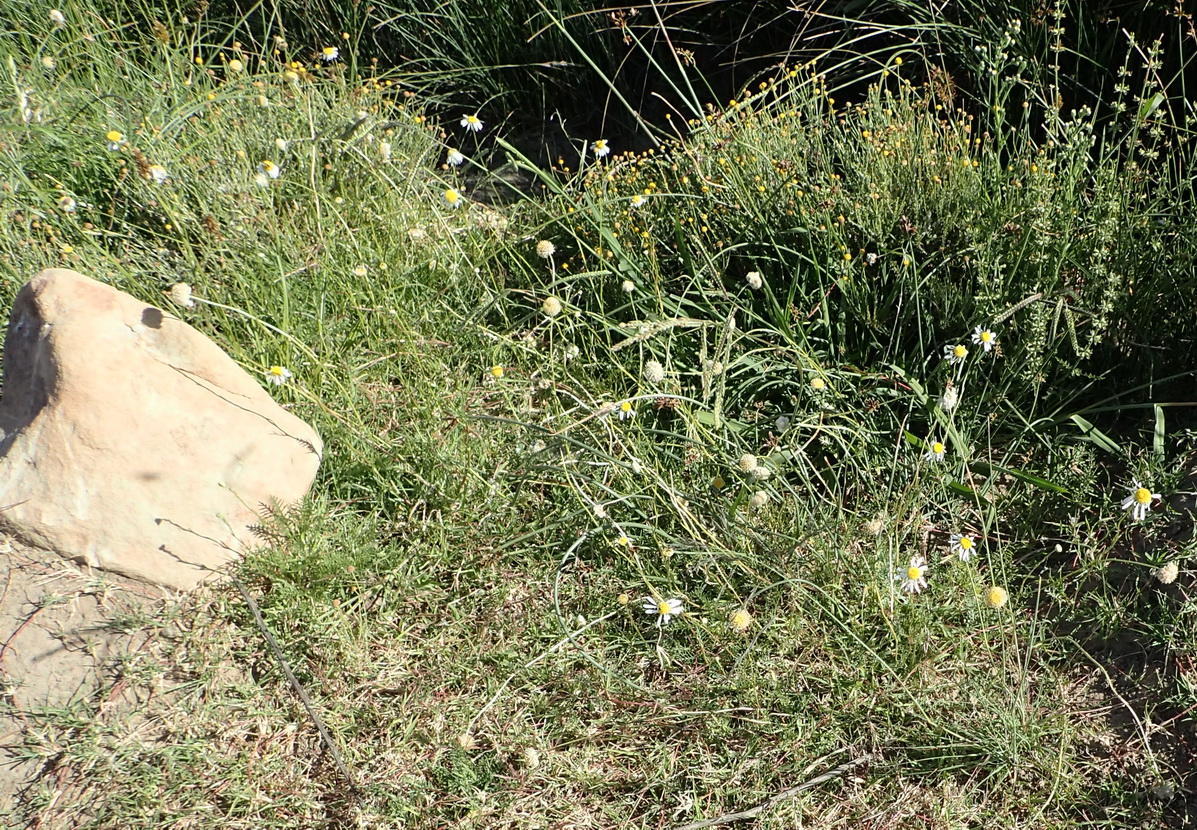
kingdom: Plantae
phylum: Tracheophyta
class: Magnoliopsida
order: Asterales
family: Asteraceae
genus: Garuleum
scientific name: Garuleum bipinnatum
